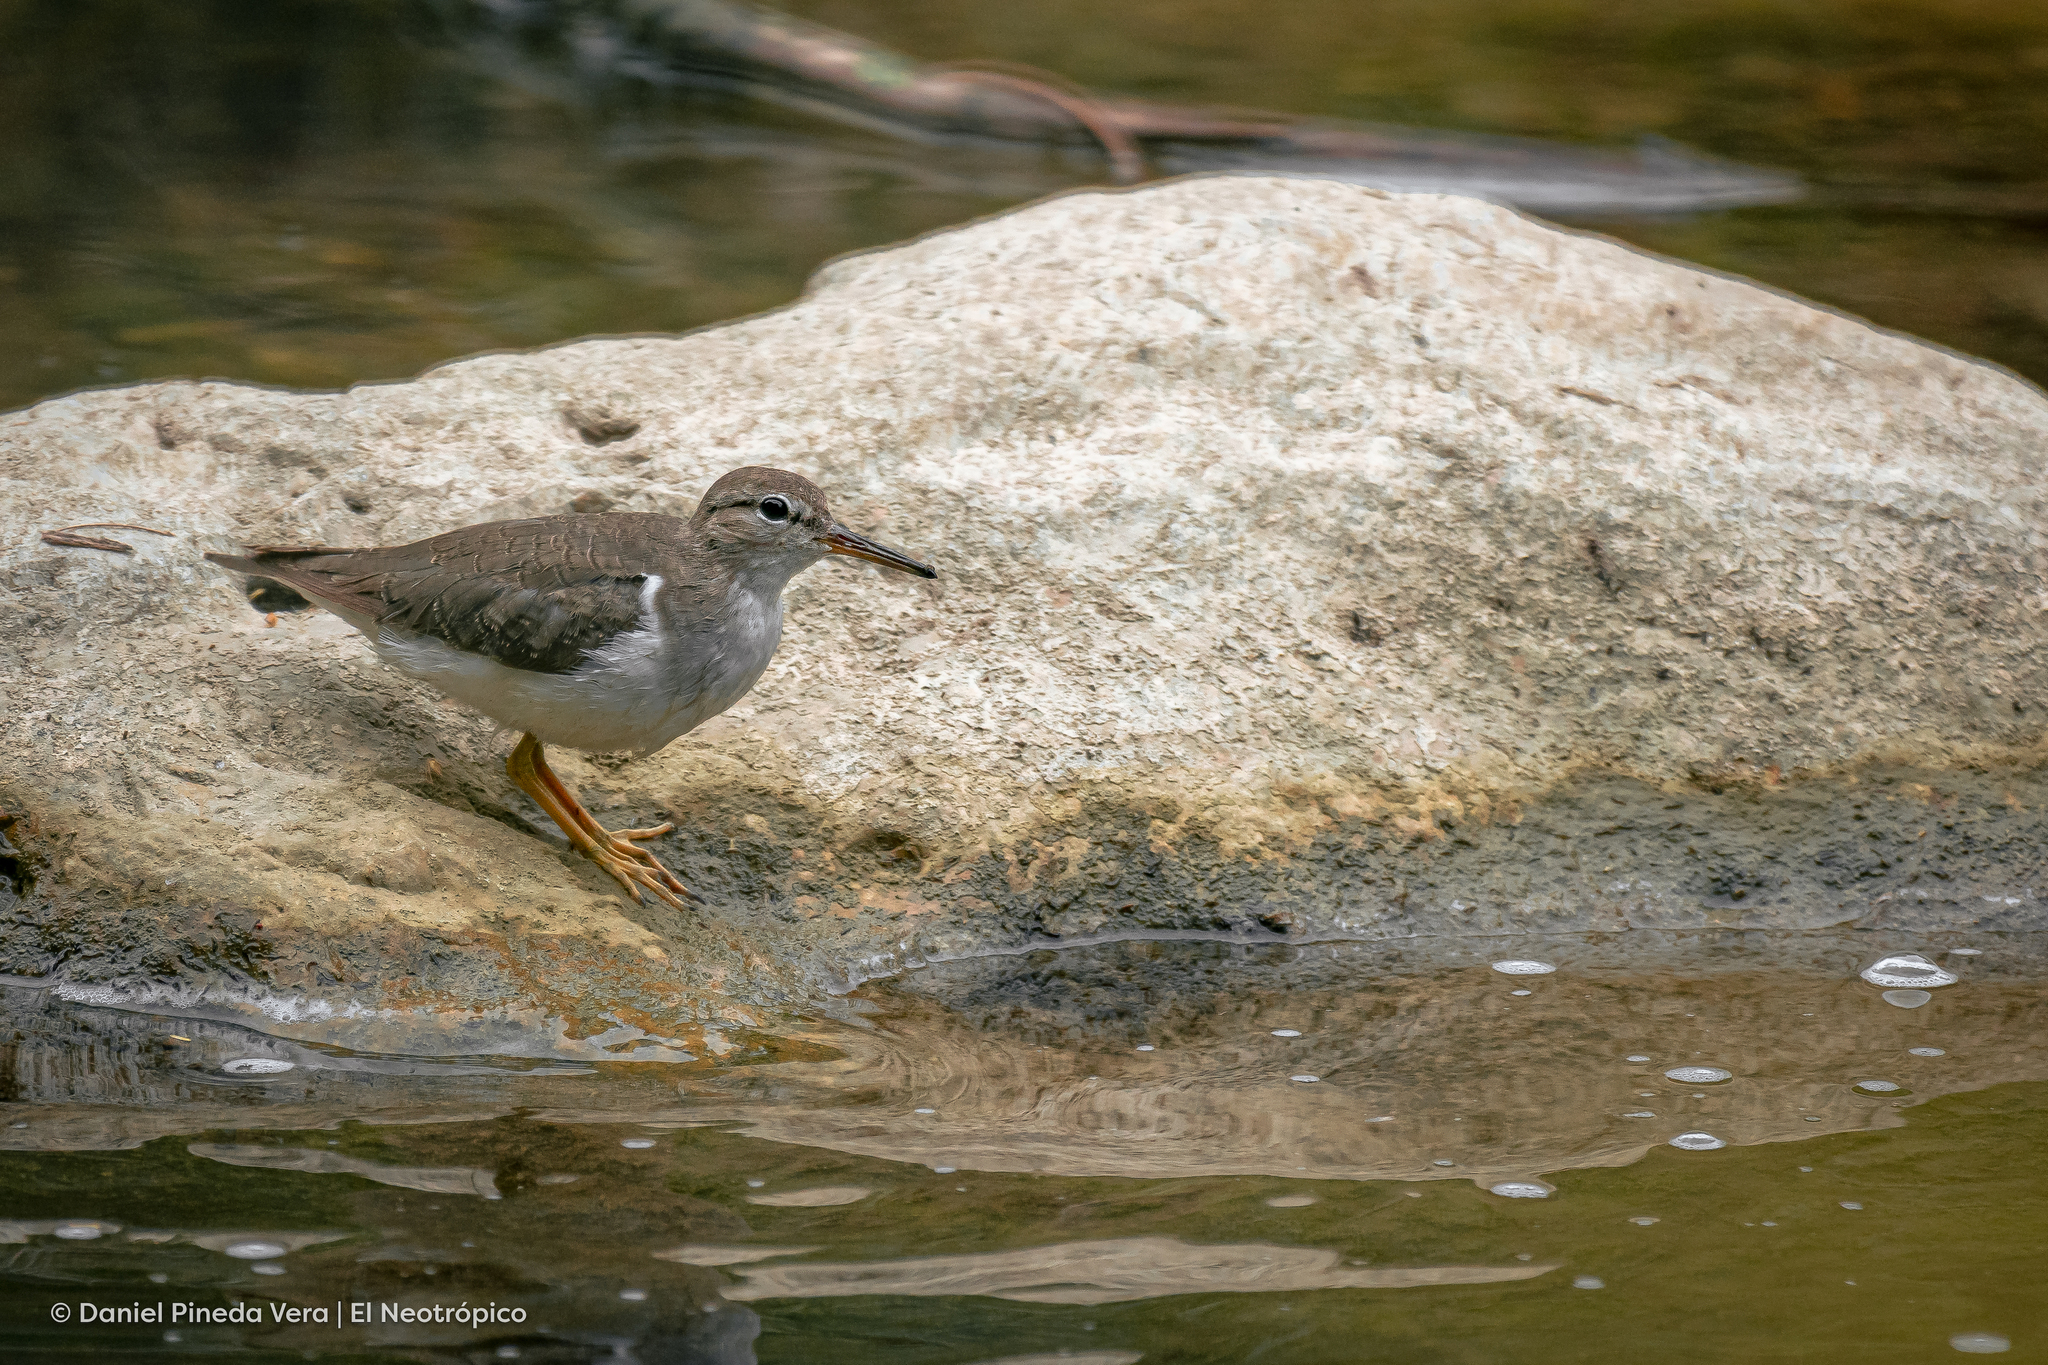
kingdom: Animalia
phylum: Chordata
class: Aves
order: Charadriiformes
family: Scolopacidae
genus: Actitis
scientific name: Actitis macularius
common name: Spotted sandpiper
